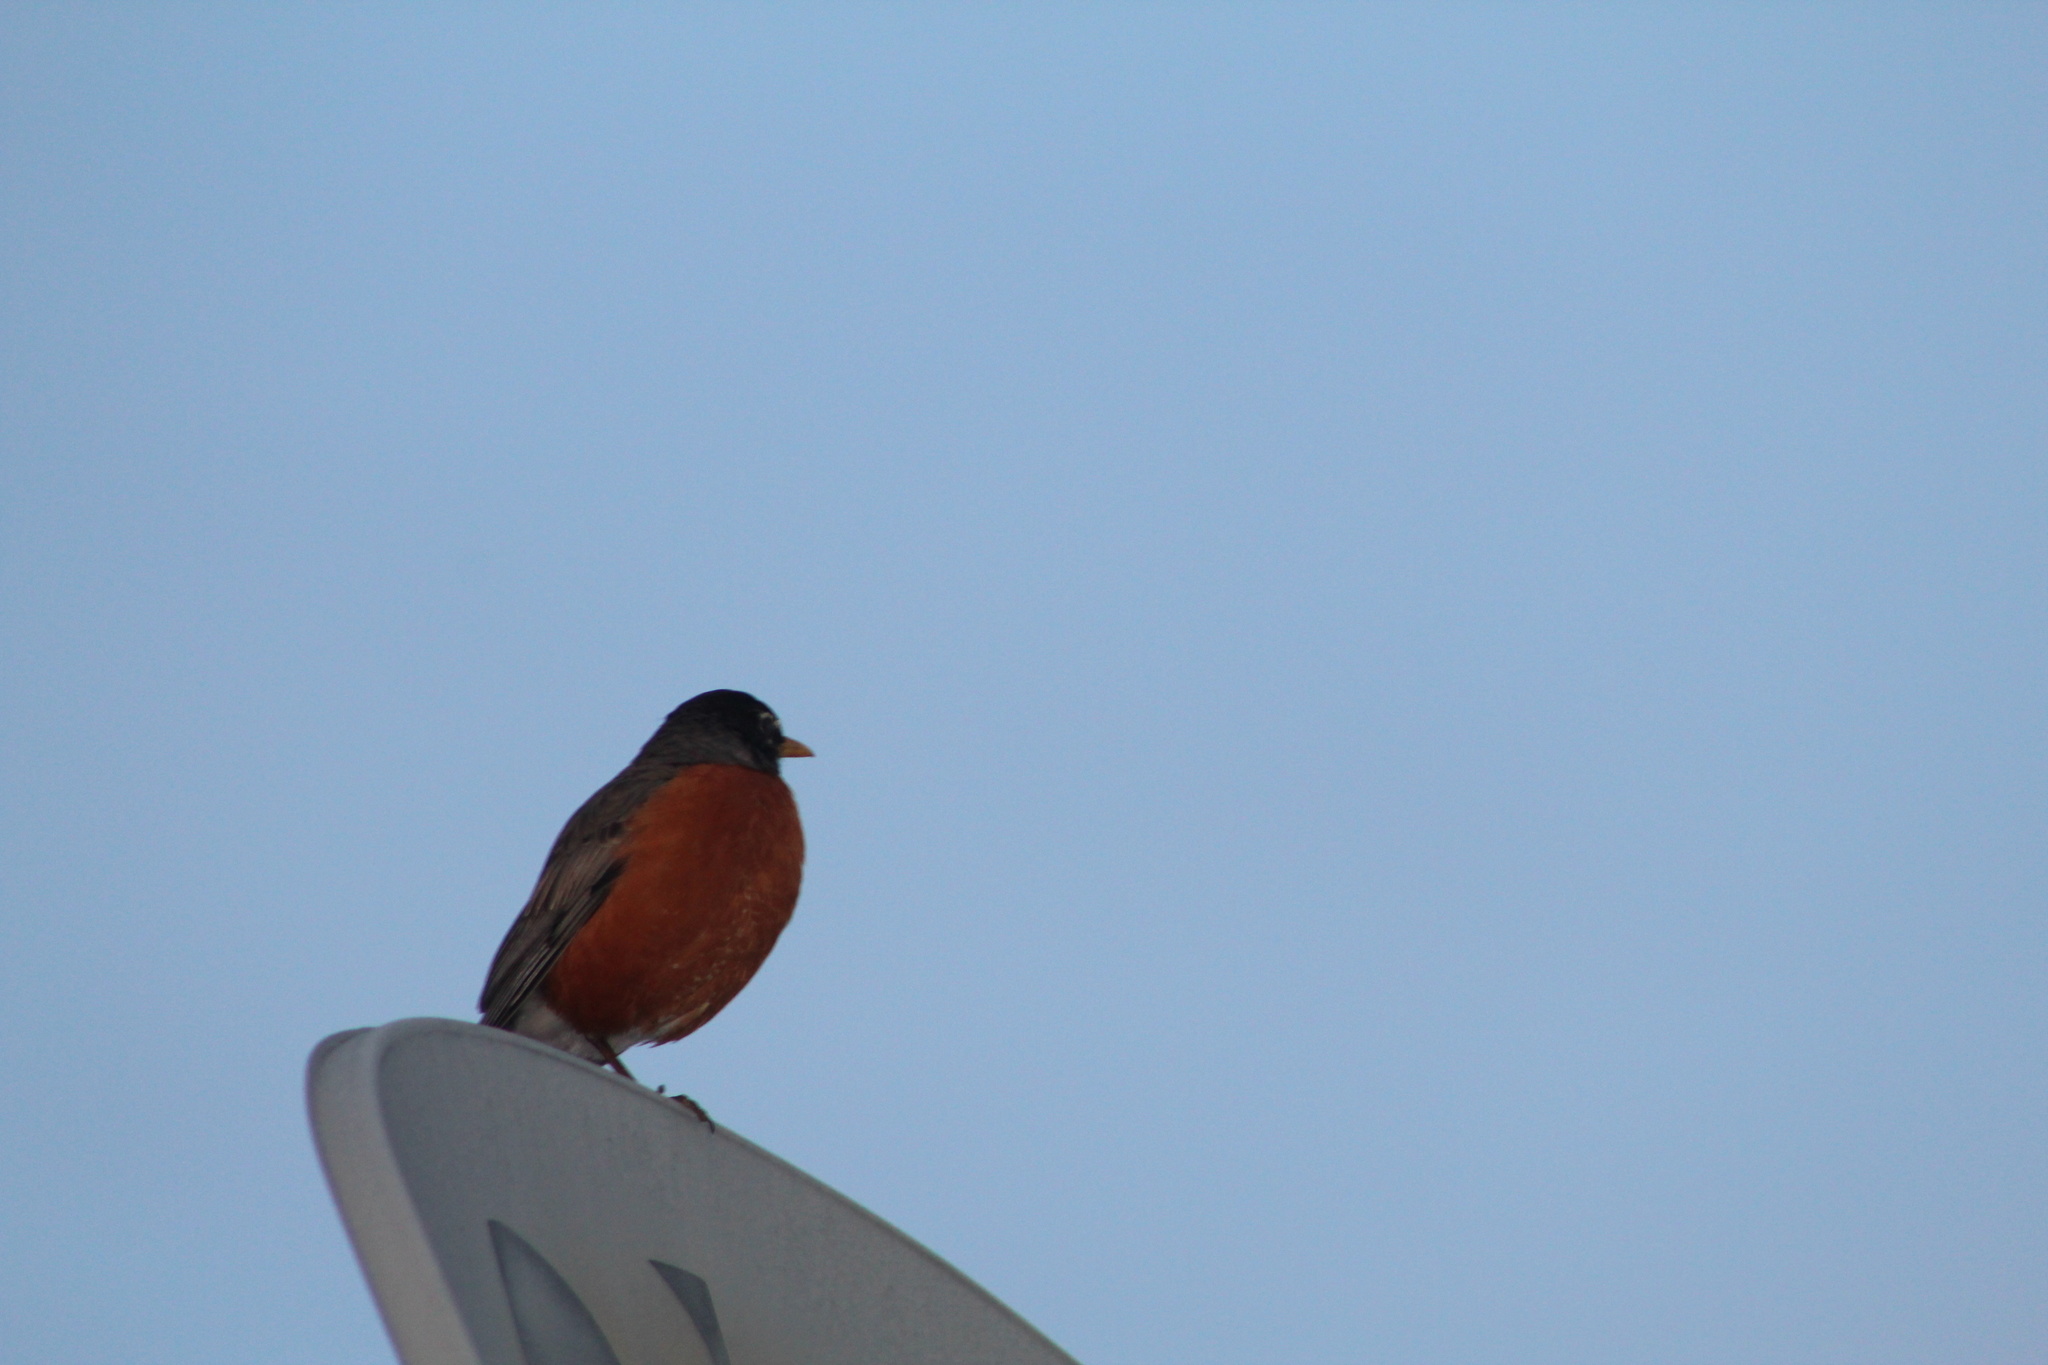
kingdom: Animalia
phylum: Chordata
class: Aves
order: Passeriformes
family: Turdidae
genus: Turdus
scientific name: Turdus migratorius
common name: American robin
